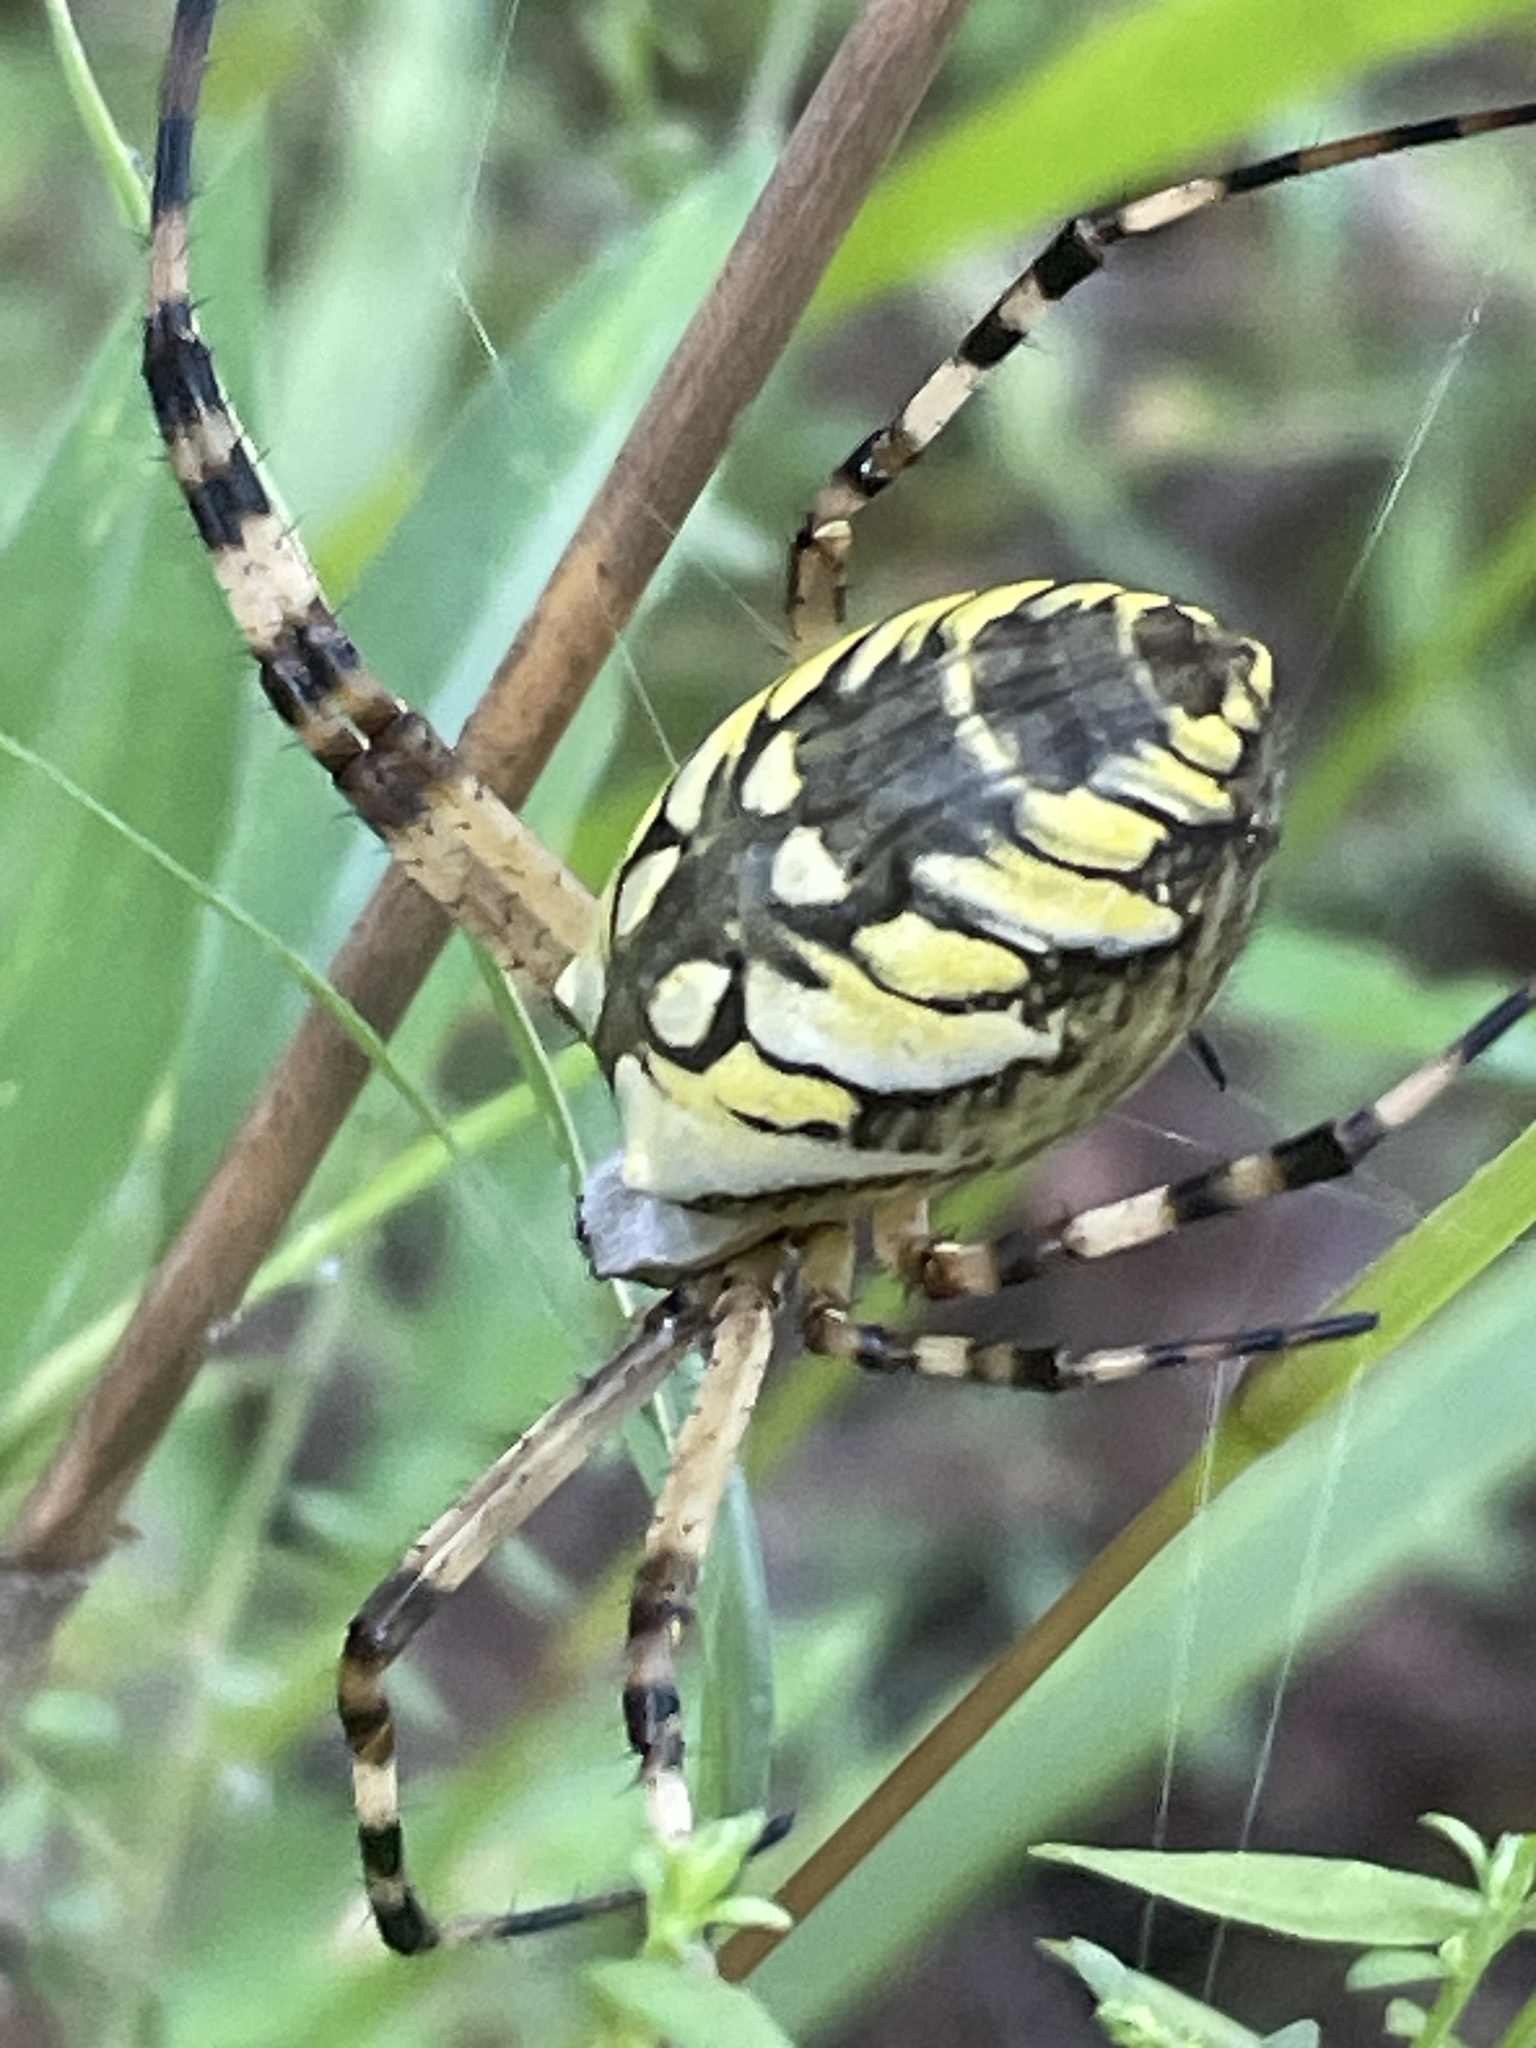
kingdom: Animalia
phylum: Arthropoda
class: Arachnida
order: Araneae
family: Araneidae
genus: Argiope
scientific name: Argiope aurantia
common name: Orb weavers
